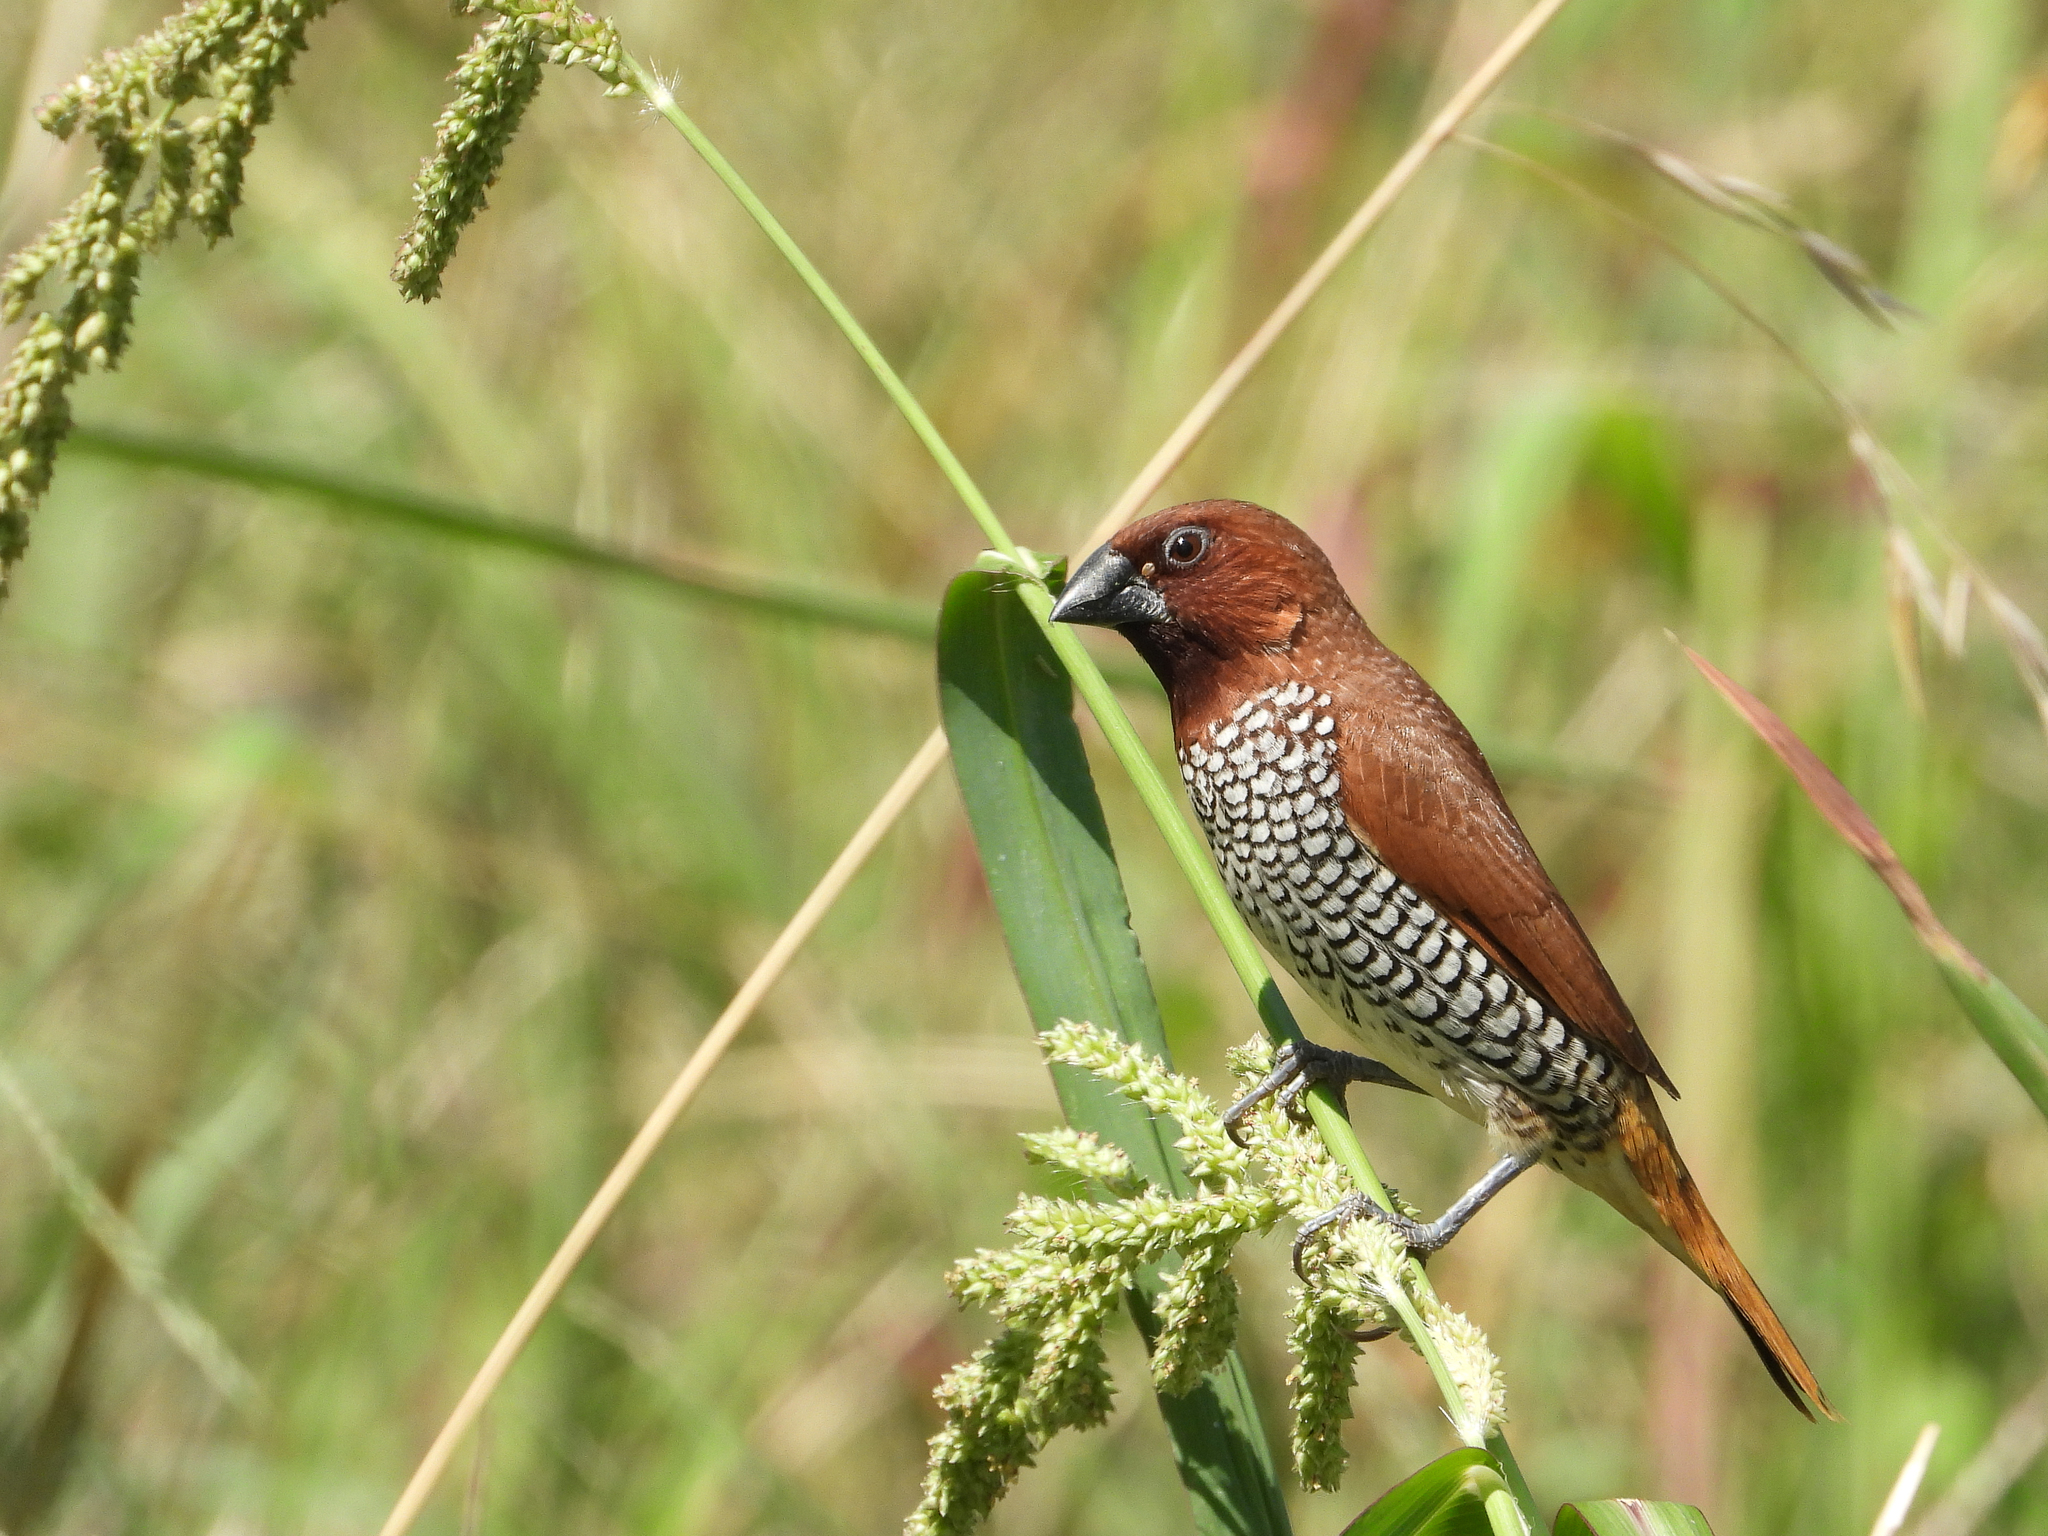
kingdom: Animalia
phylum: Chordata
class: Aves
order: Passeriformes
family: Estrildidae
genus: Lonchura
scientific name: Lonchura punctulata
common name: Scaly-breasted munia
